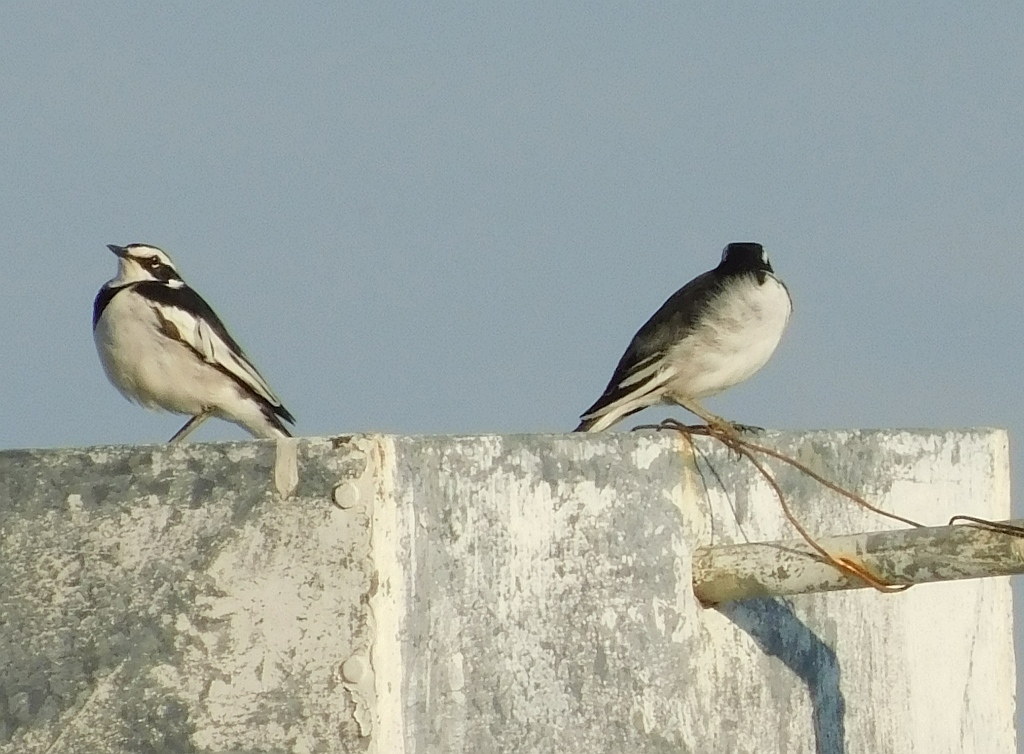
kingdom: Animalia
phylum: Chordata
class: Aves
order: Passeriformes
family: Motacillidae
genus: Motacilla
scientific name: Motacilla aguimp
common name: African pied wagtail
